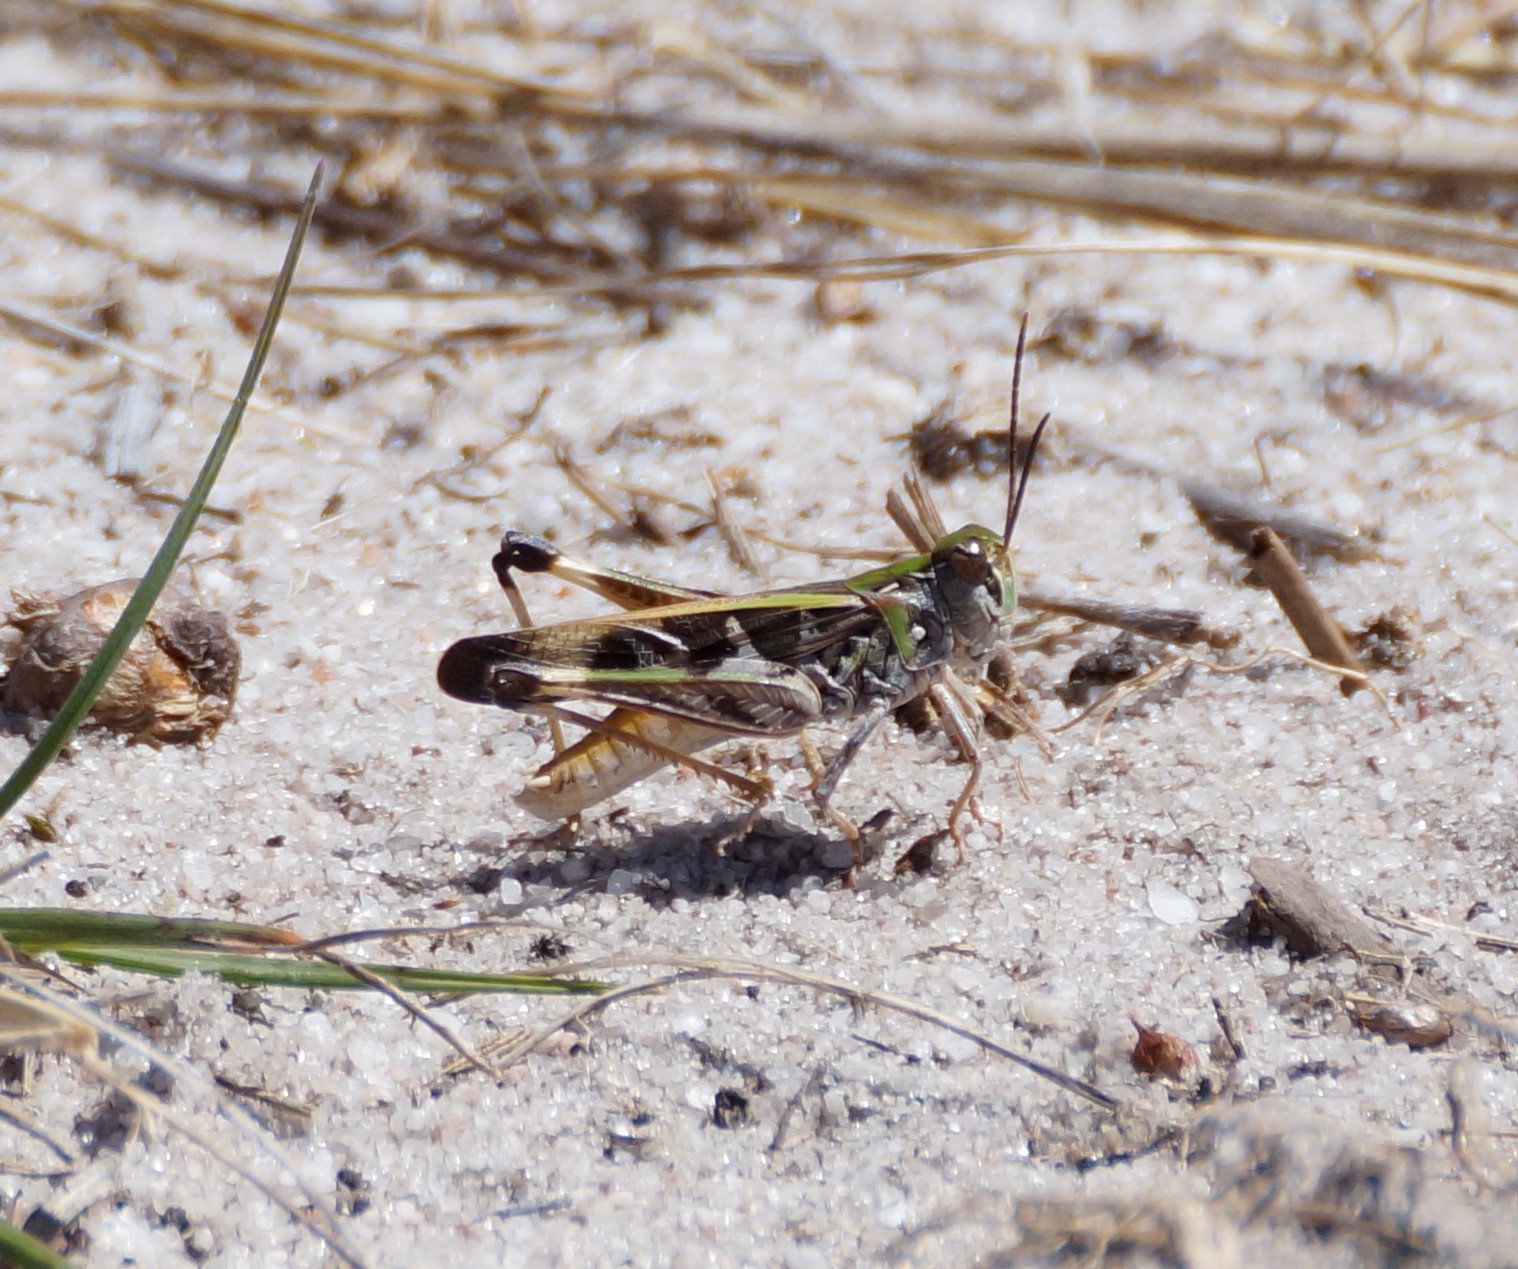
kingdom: Animalia
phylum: Arthropoda
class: Insecta
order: Orthoptera
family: Acrididae
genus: Oedaleus
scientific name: Oedaleus australis
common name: Eastern oedaleus
